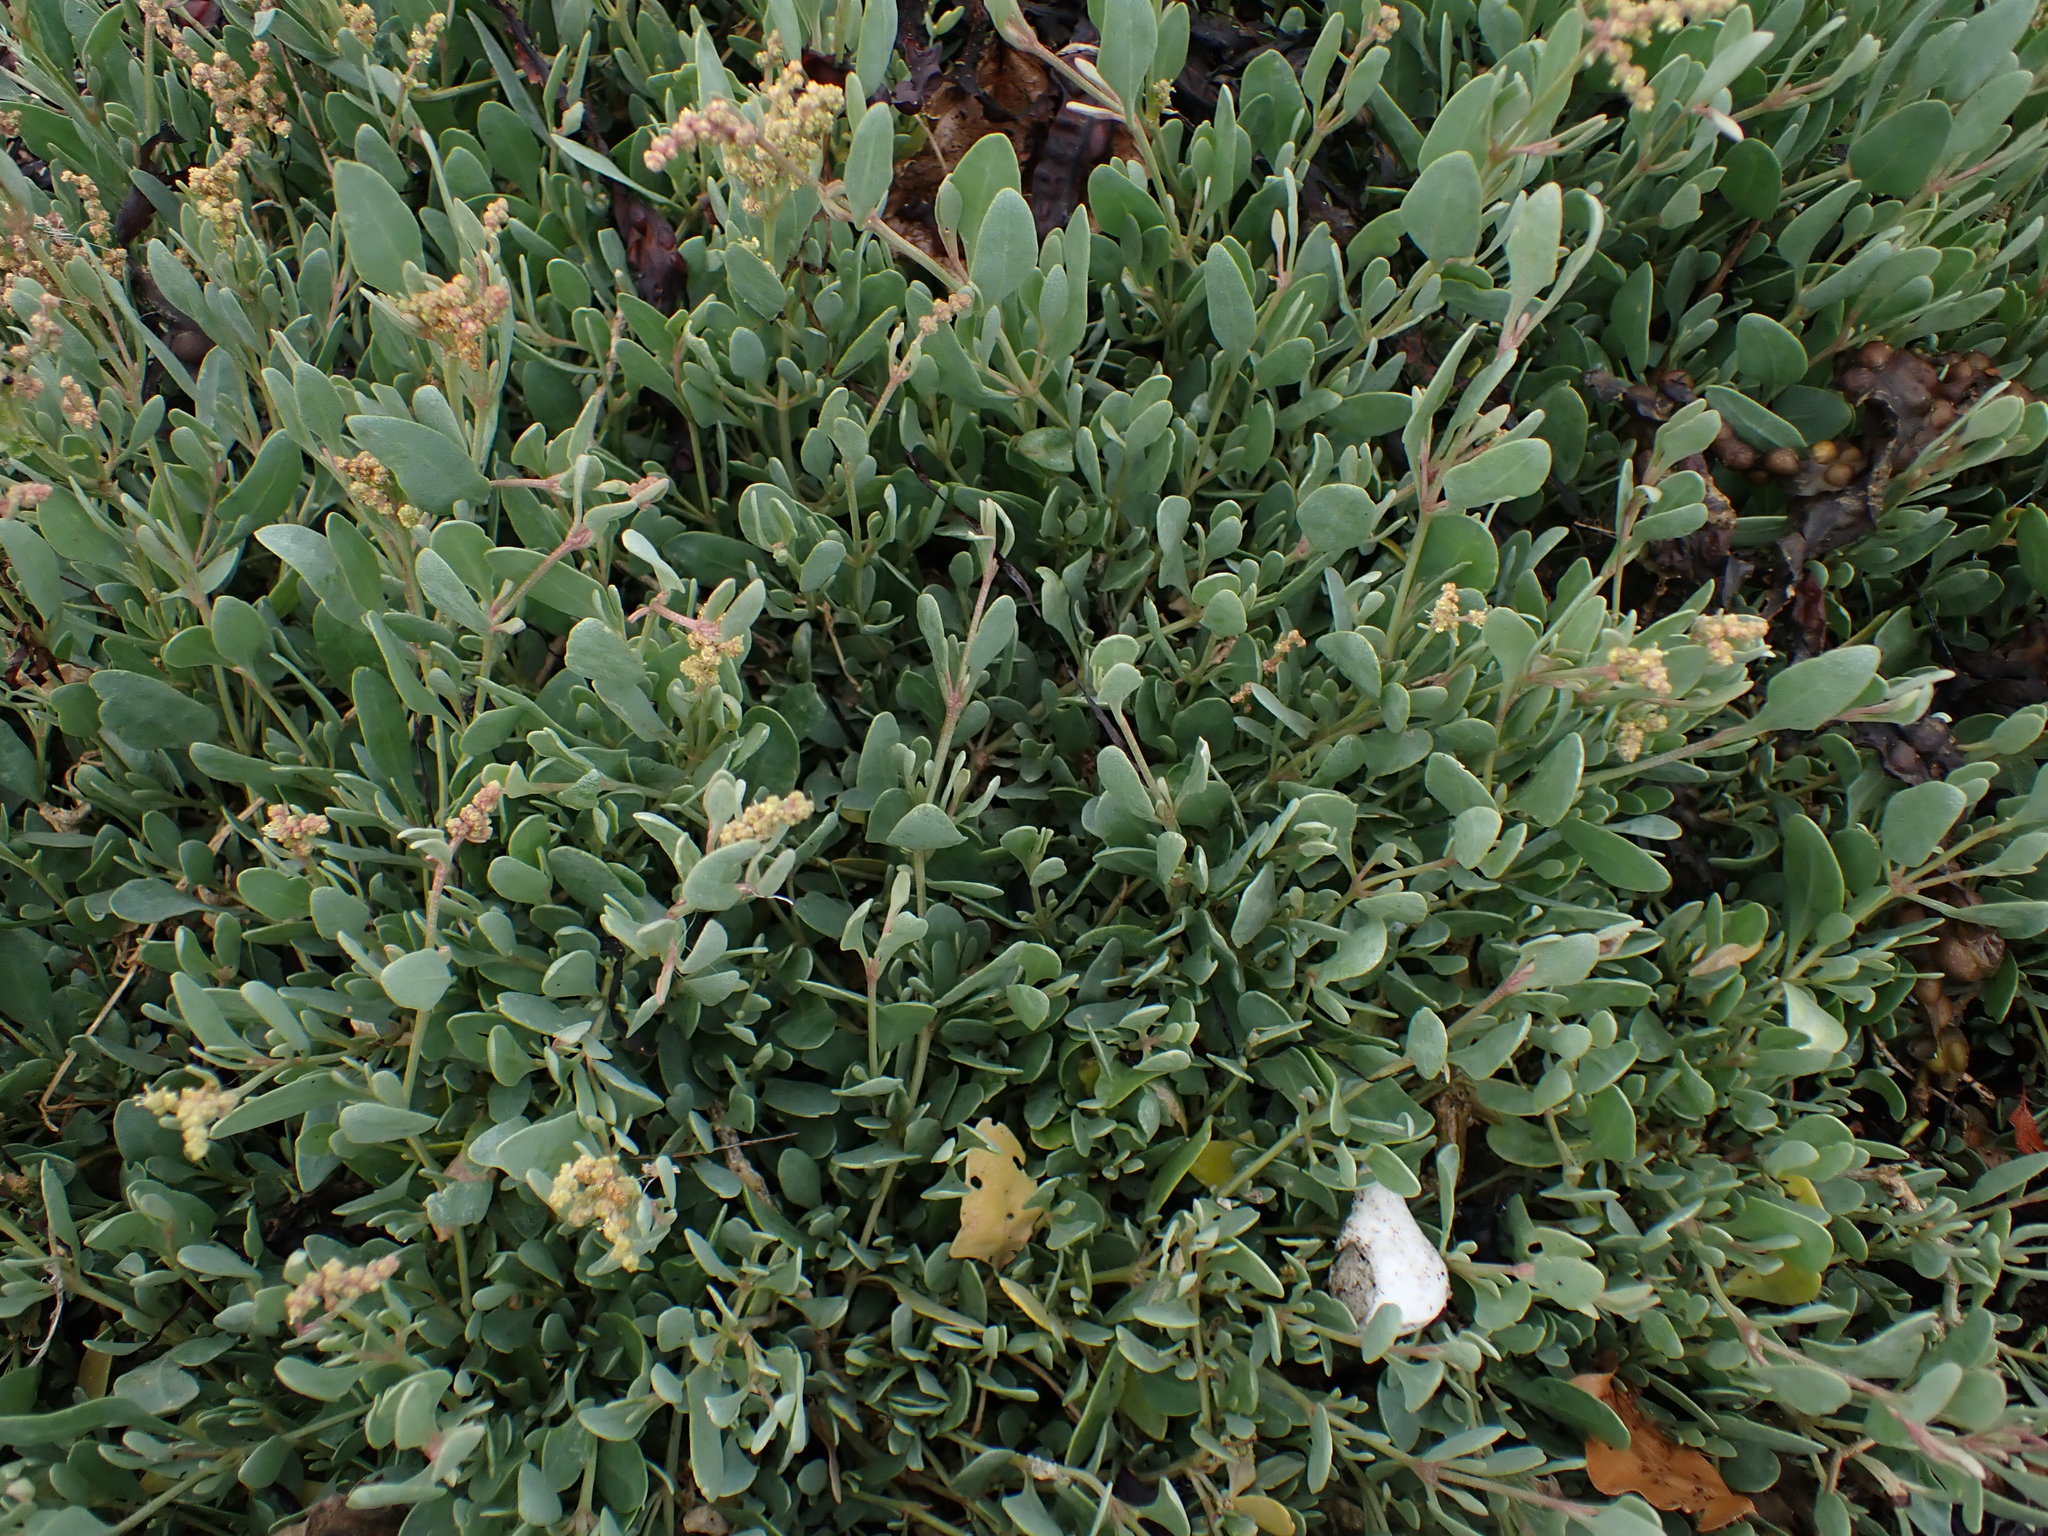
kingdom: Plantae
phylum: Tracheophyta
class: Magnoliopsida
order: Caryophyllales
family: Amaranthaceae
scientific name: Amaranthaceae
